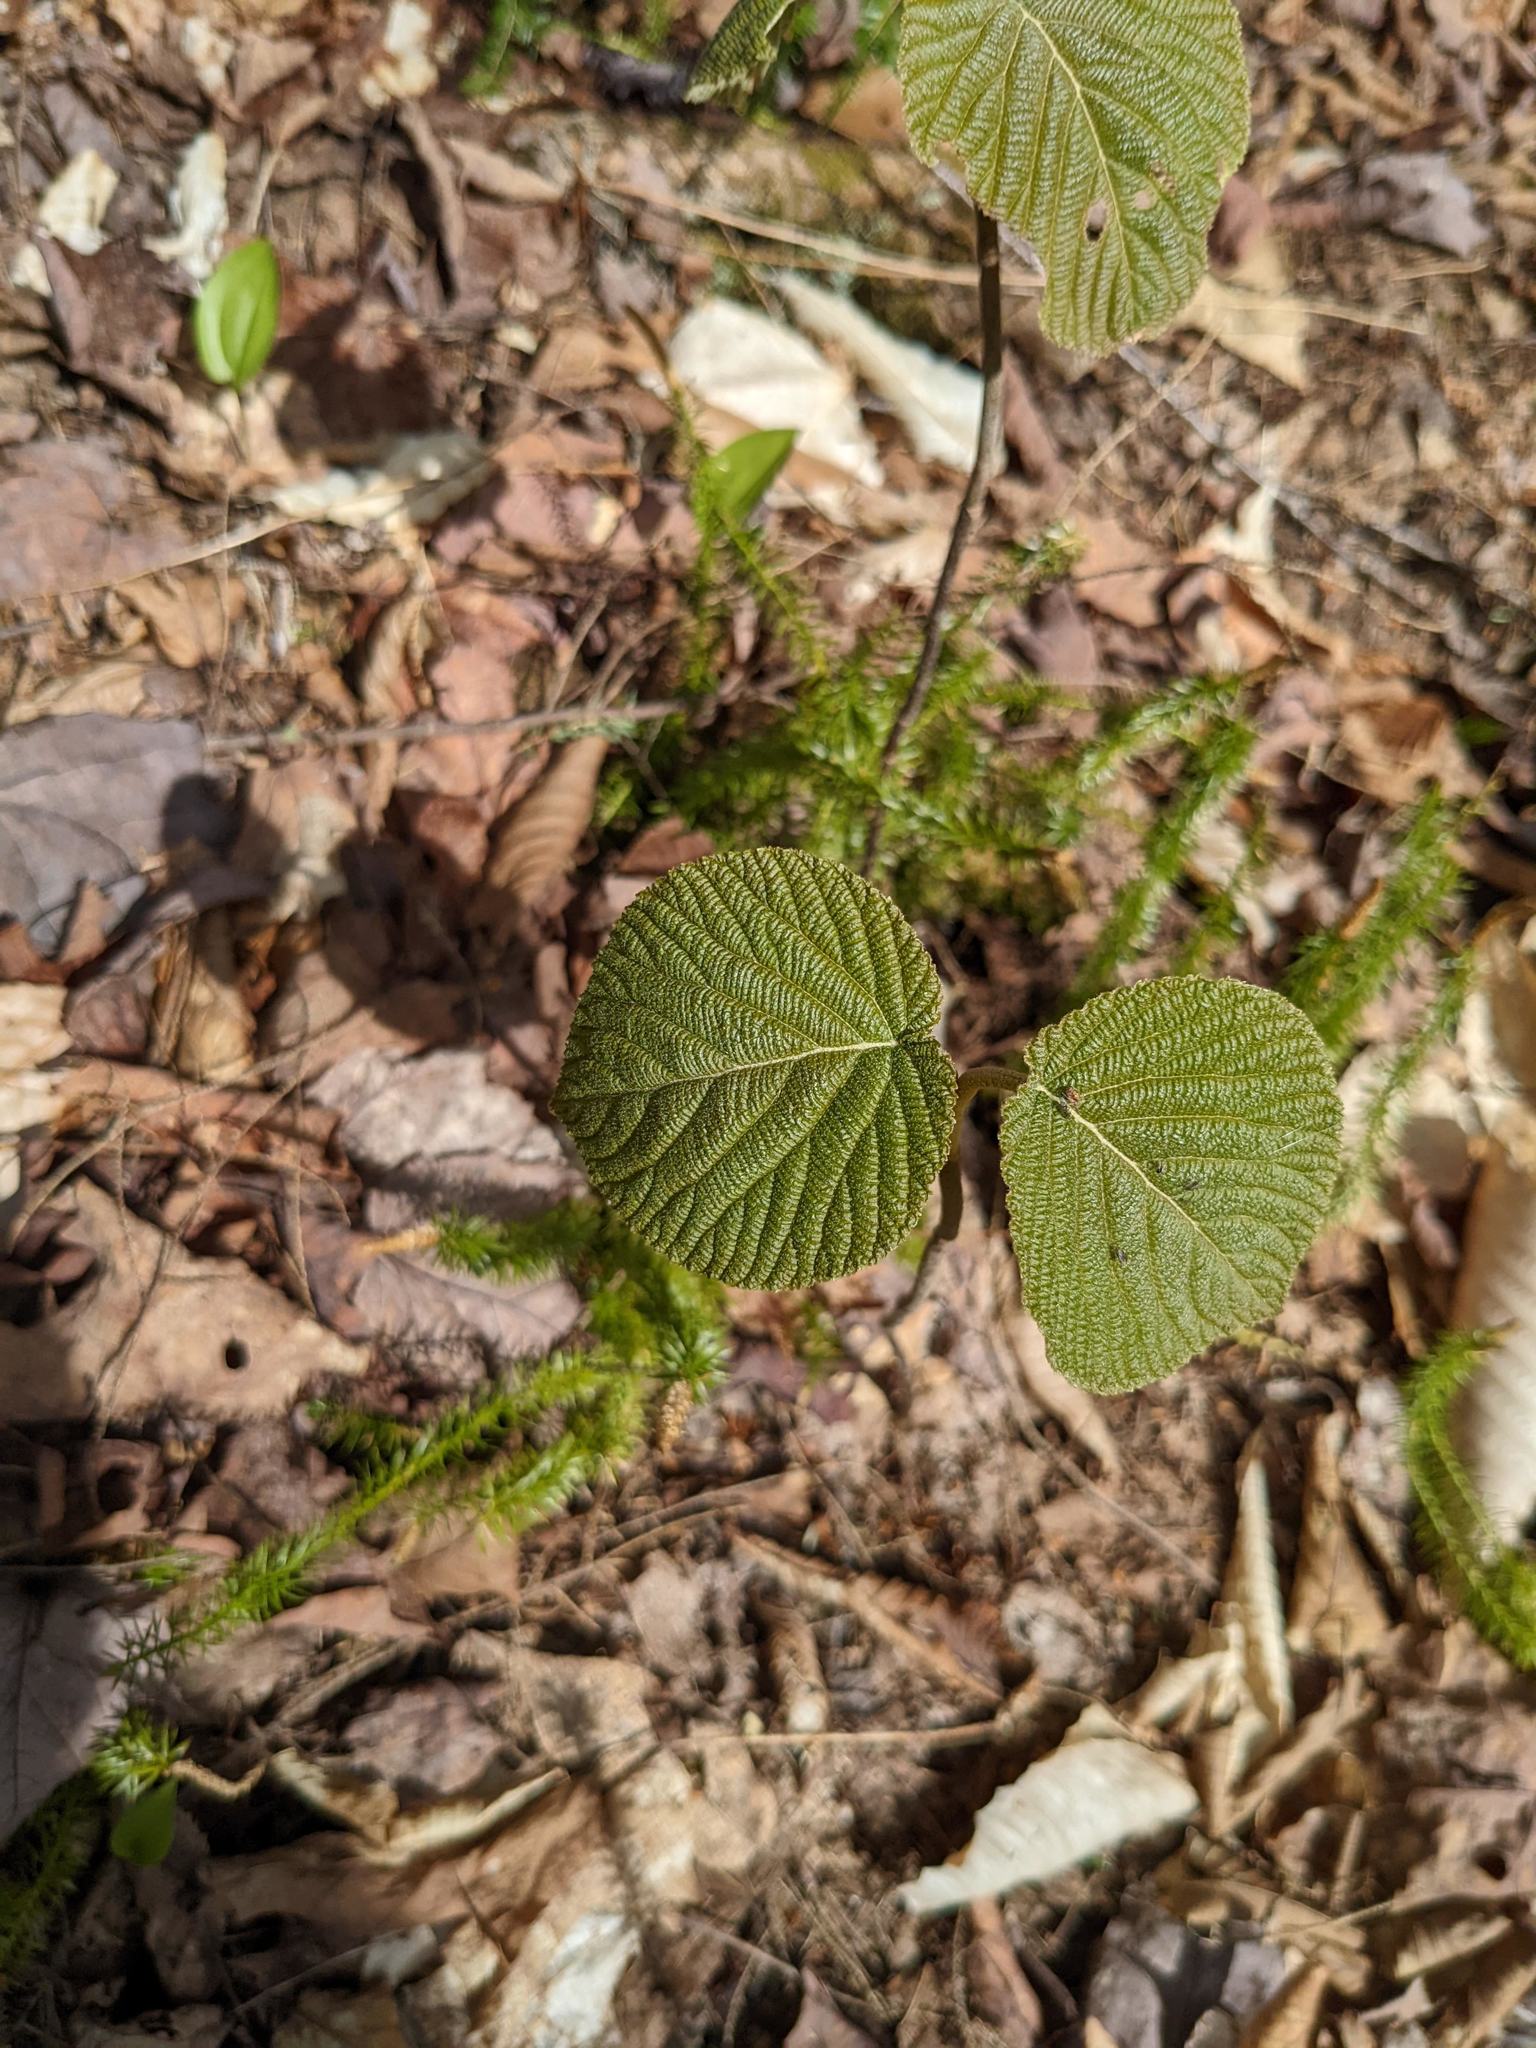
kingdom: Plantae
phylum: Tracheophyta
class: Magnoliopsida
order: Dipsacales
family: Viburnaceae
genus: Viburnum
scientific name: Viburnum lantanoides
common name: Hobblebush
